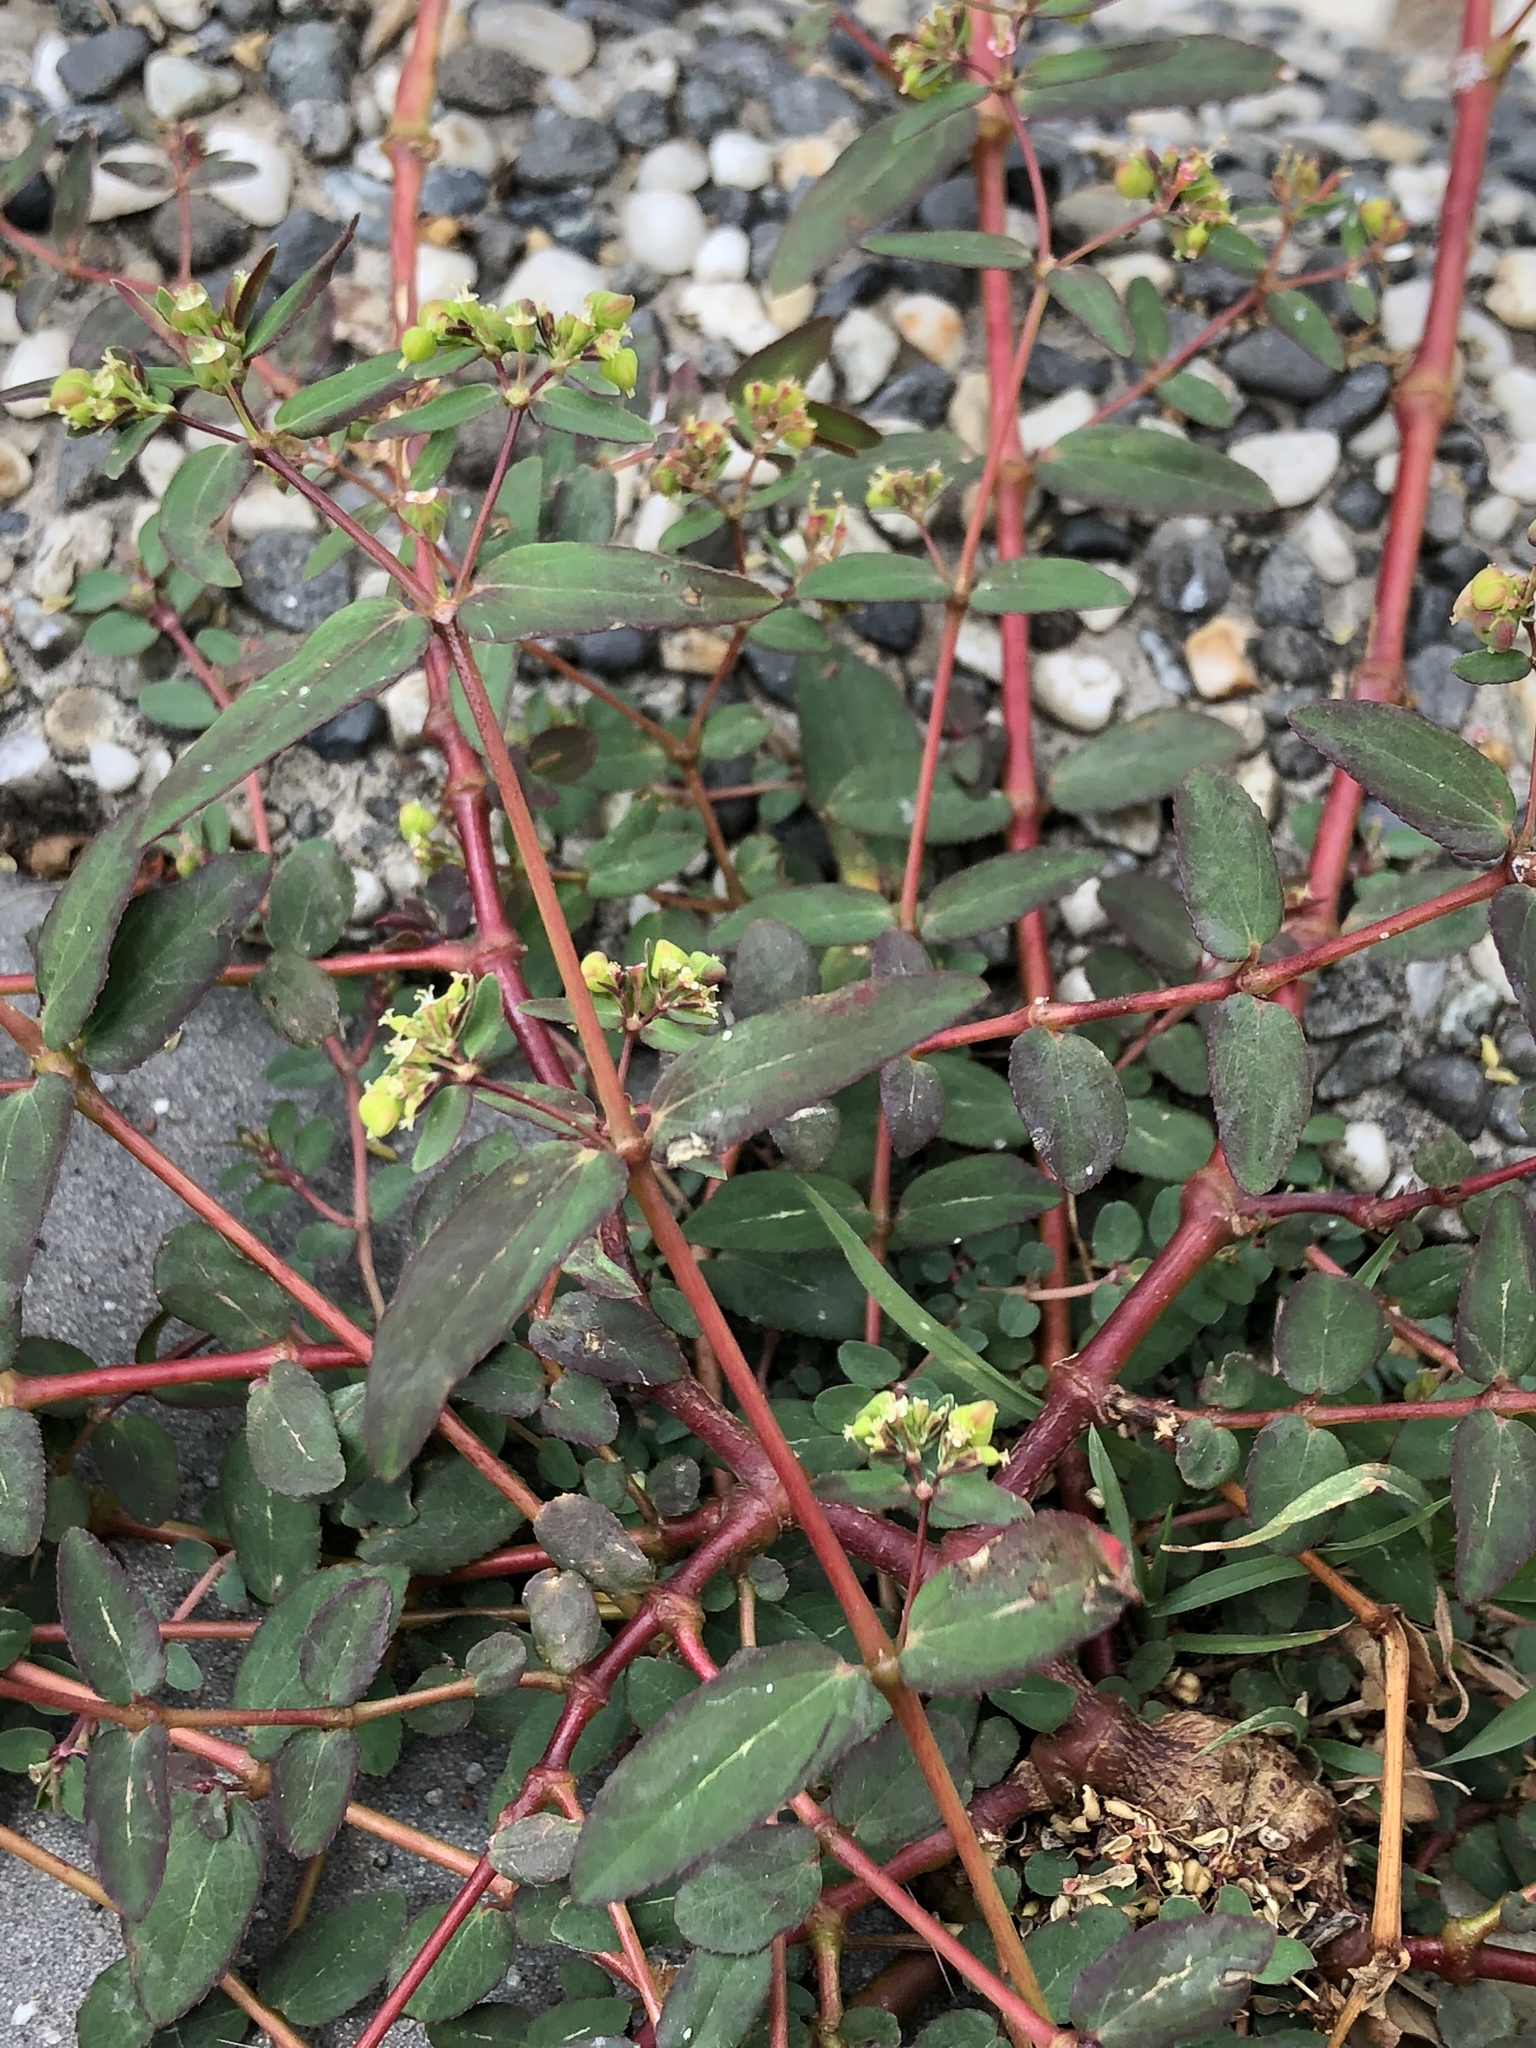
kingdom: Plantae
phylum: Tracheophyta
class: Magnoliopsida
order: Malpighiales
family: Euphorbiaceae
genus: Euphorbia
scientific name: Euphorbia hyssopifolia
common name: Hyssopleaf sandmat
